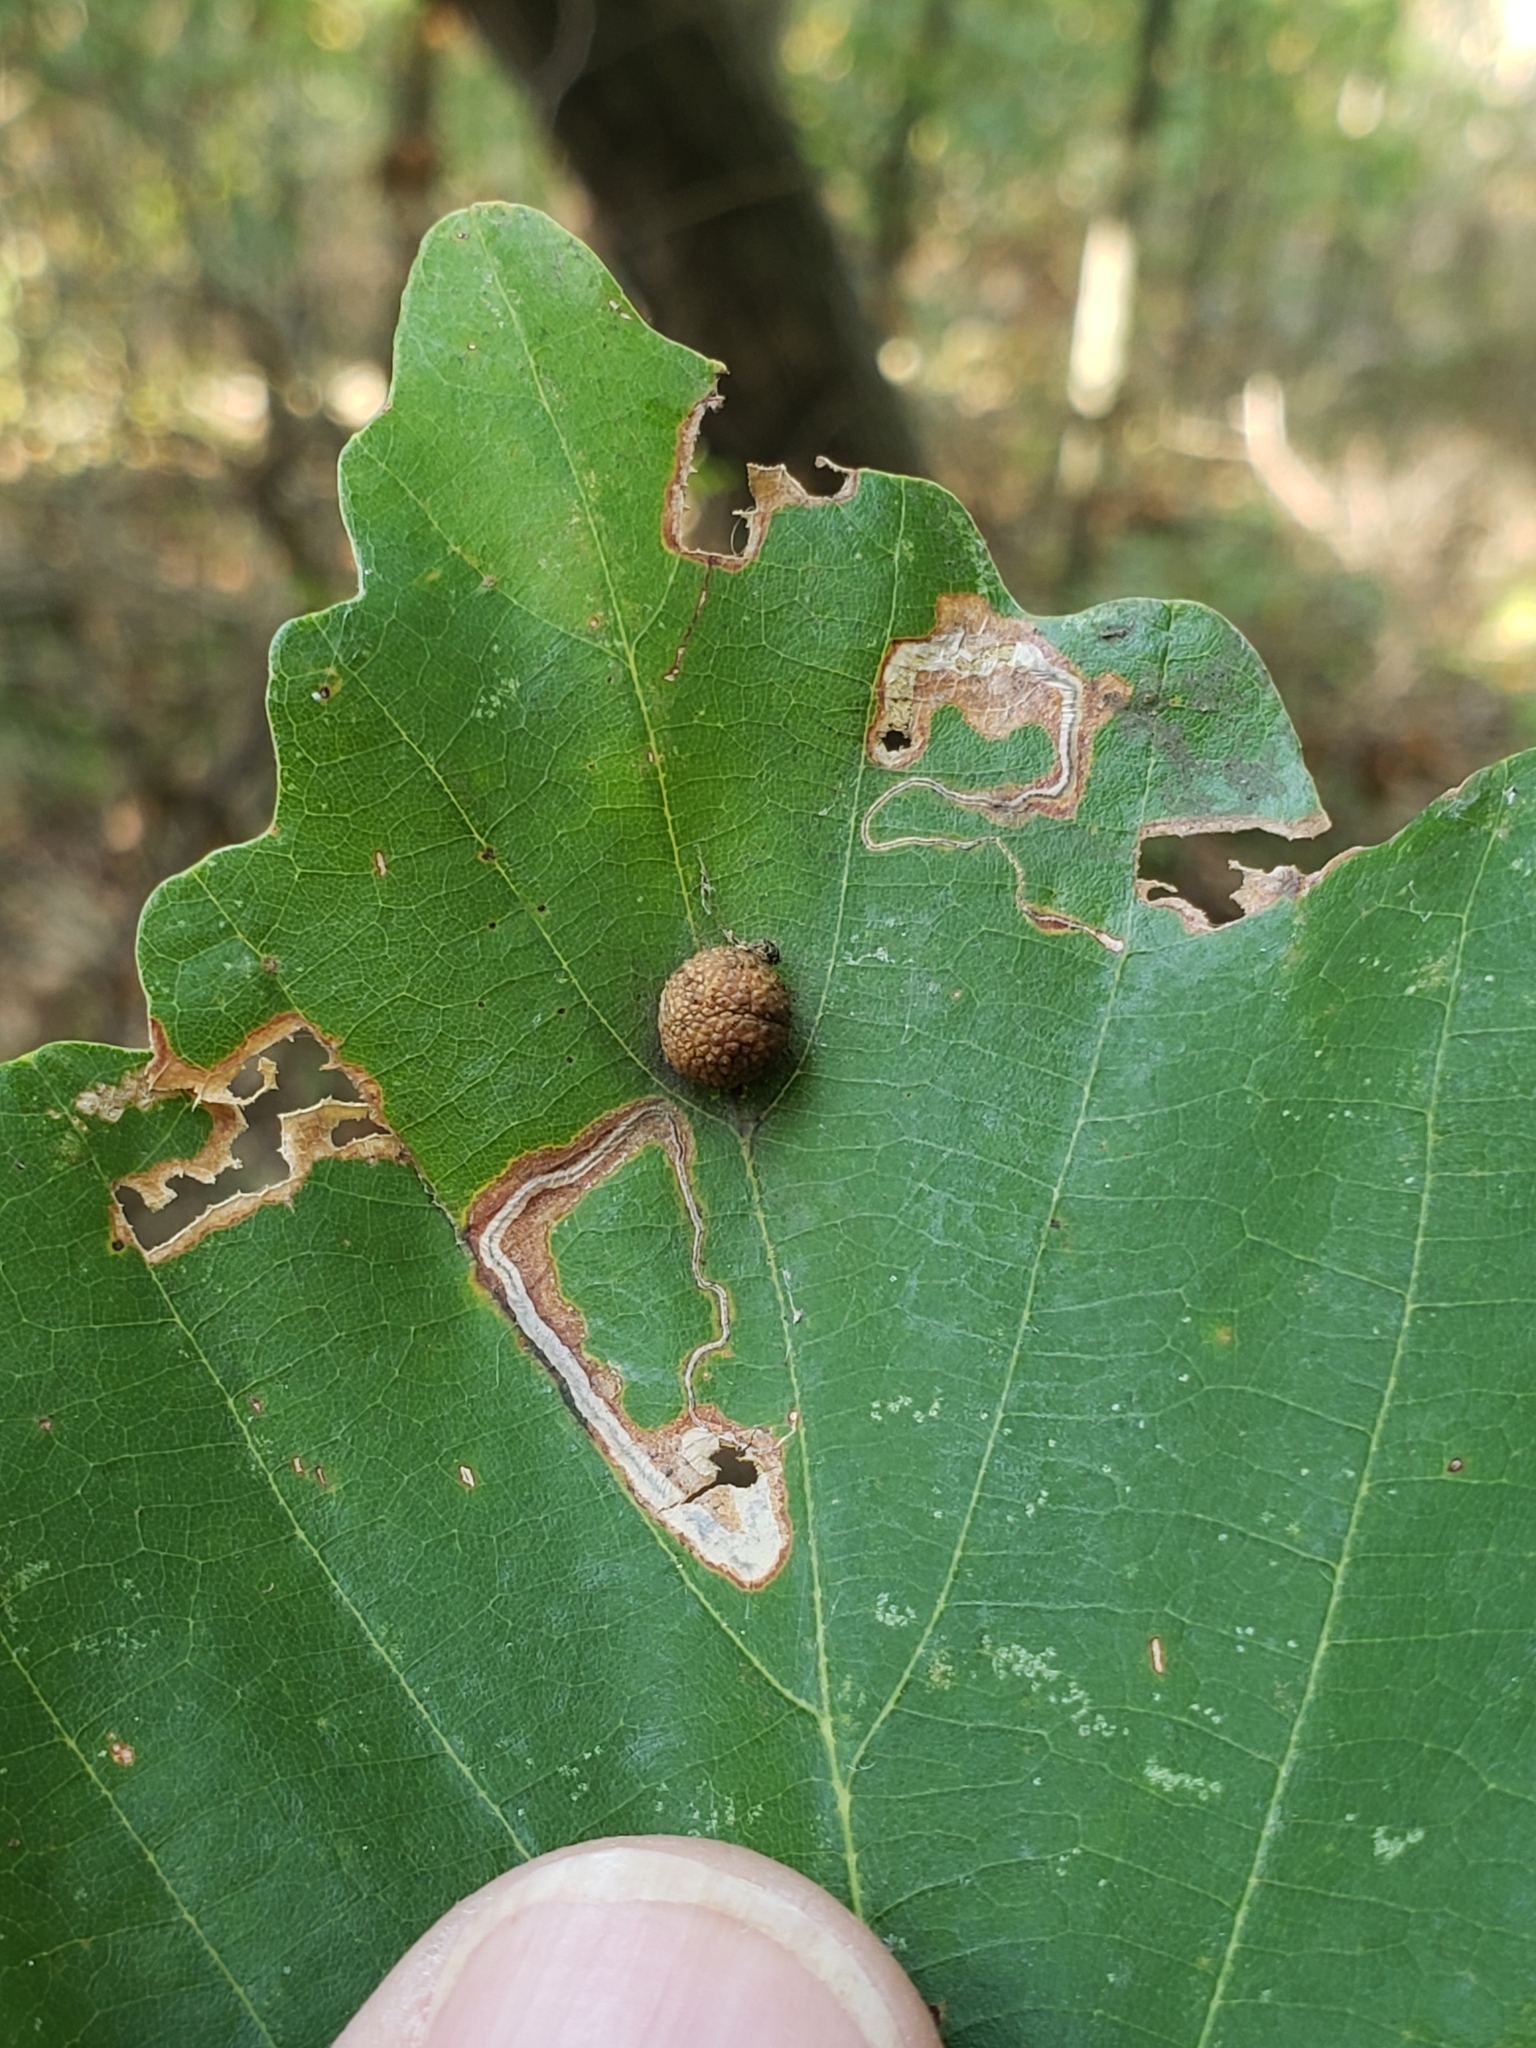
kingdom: Animalia
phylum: Arthropoda
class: Insecta
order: Hymenoptera
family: Cynipidae
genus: Acraspis
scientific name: Acraspis quercushirta
